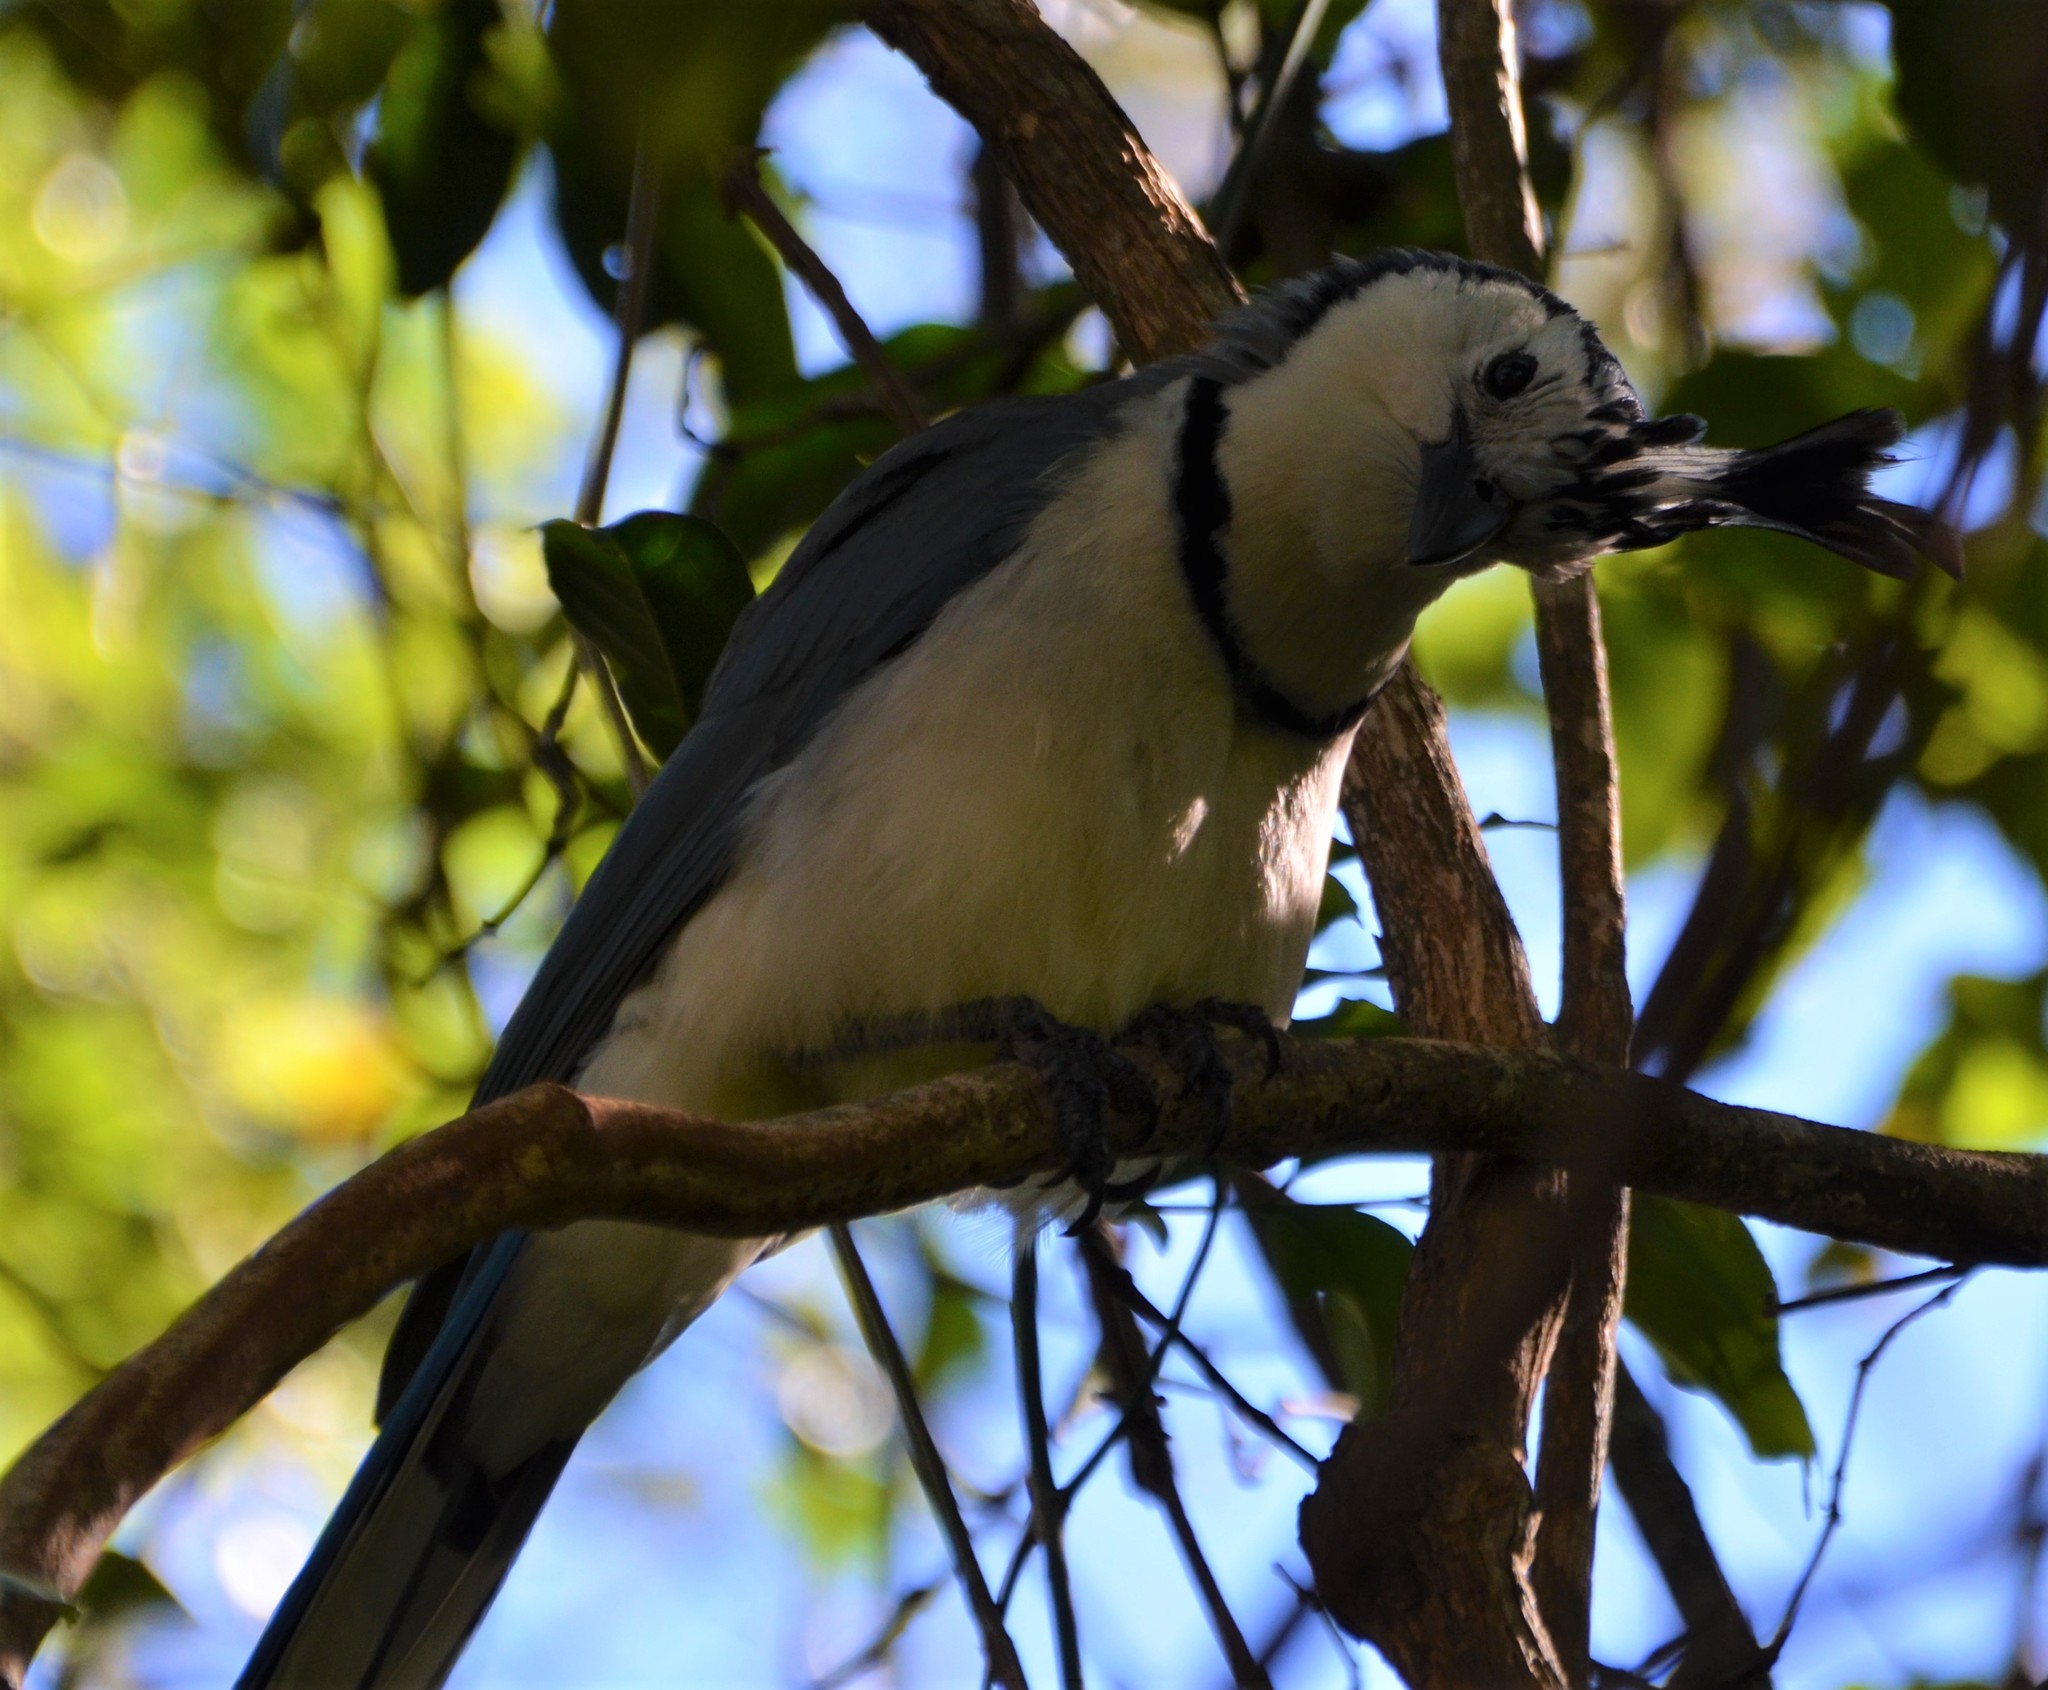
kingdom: Animalia
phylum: Chordata
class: Aves
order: Passeriformes
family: Corvidae
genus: Calocitta
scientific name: Calocitta formosa
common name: White-throated magpie-jay
